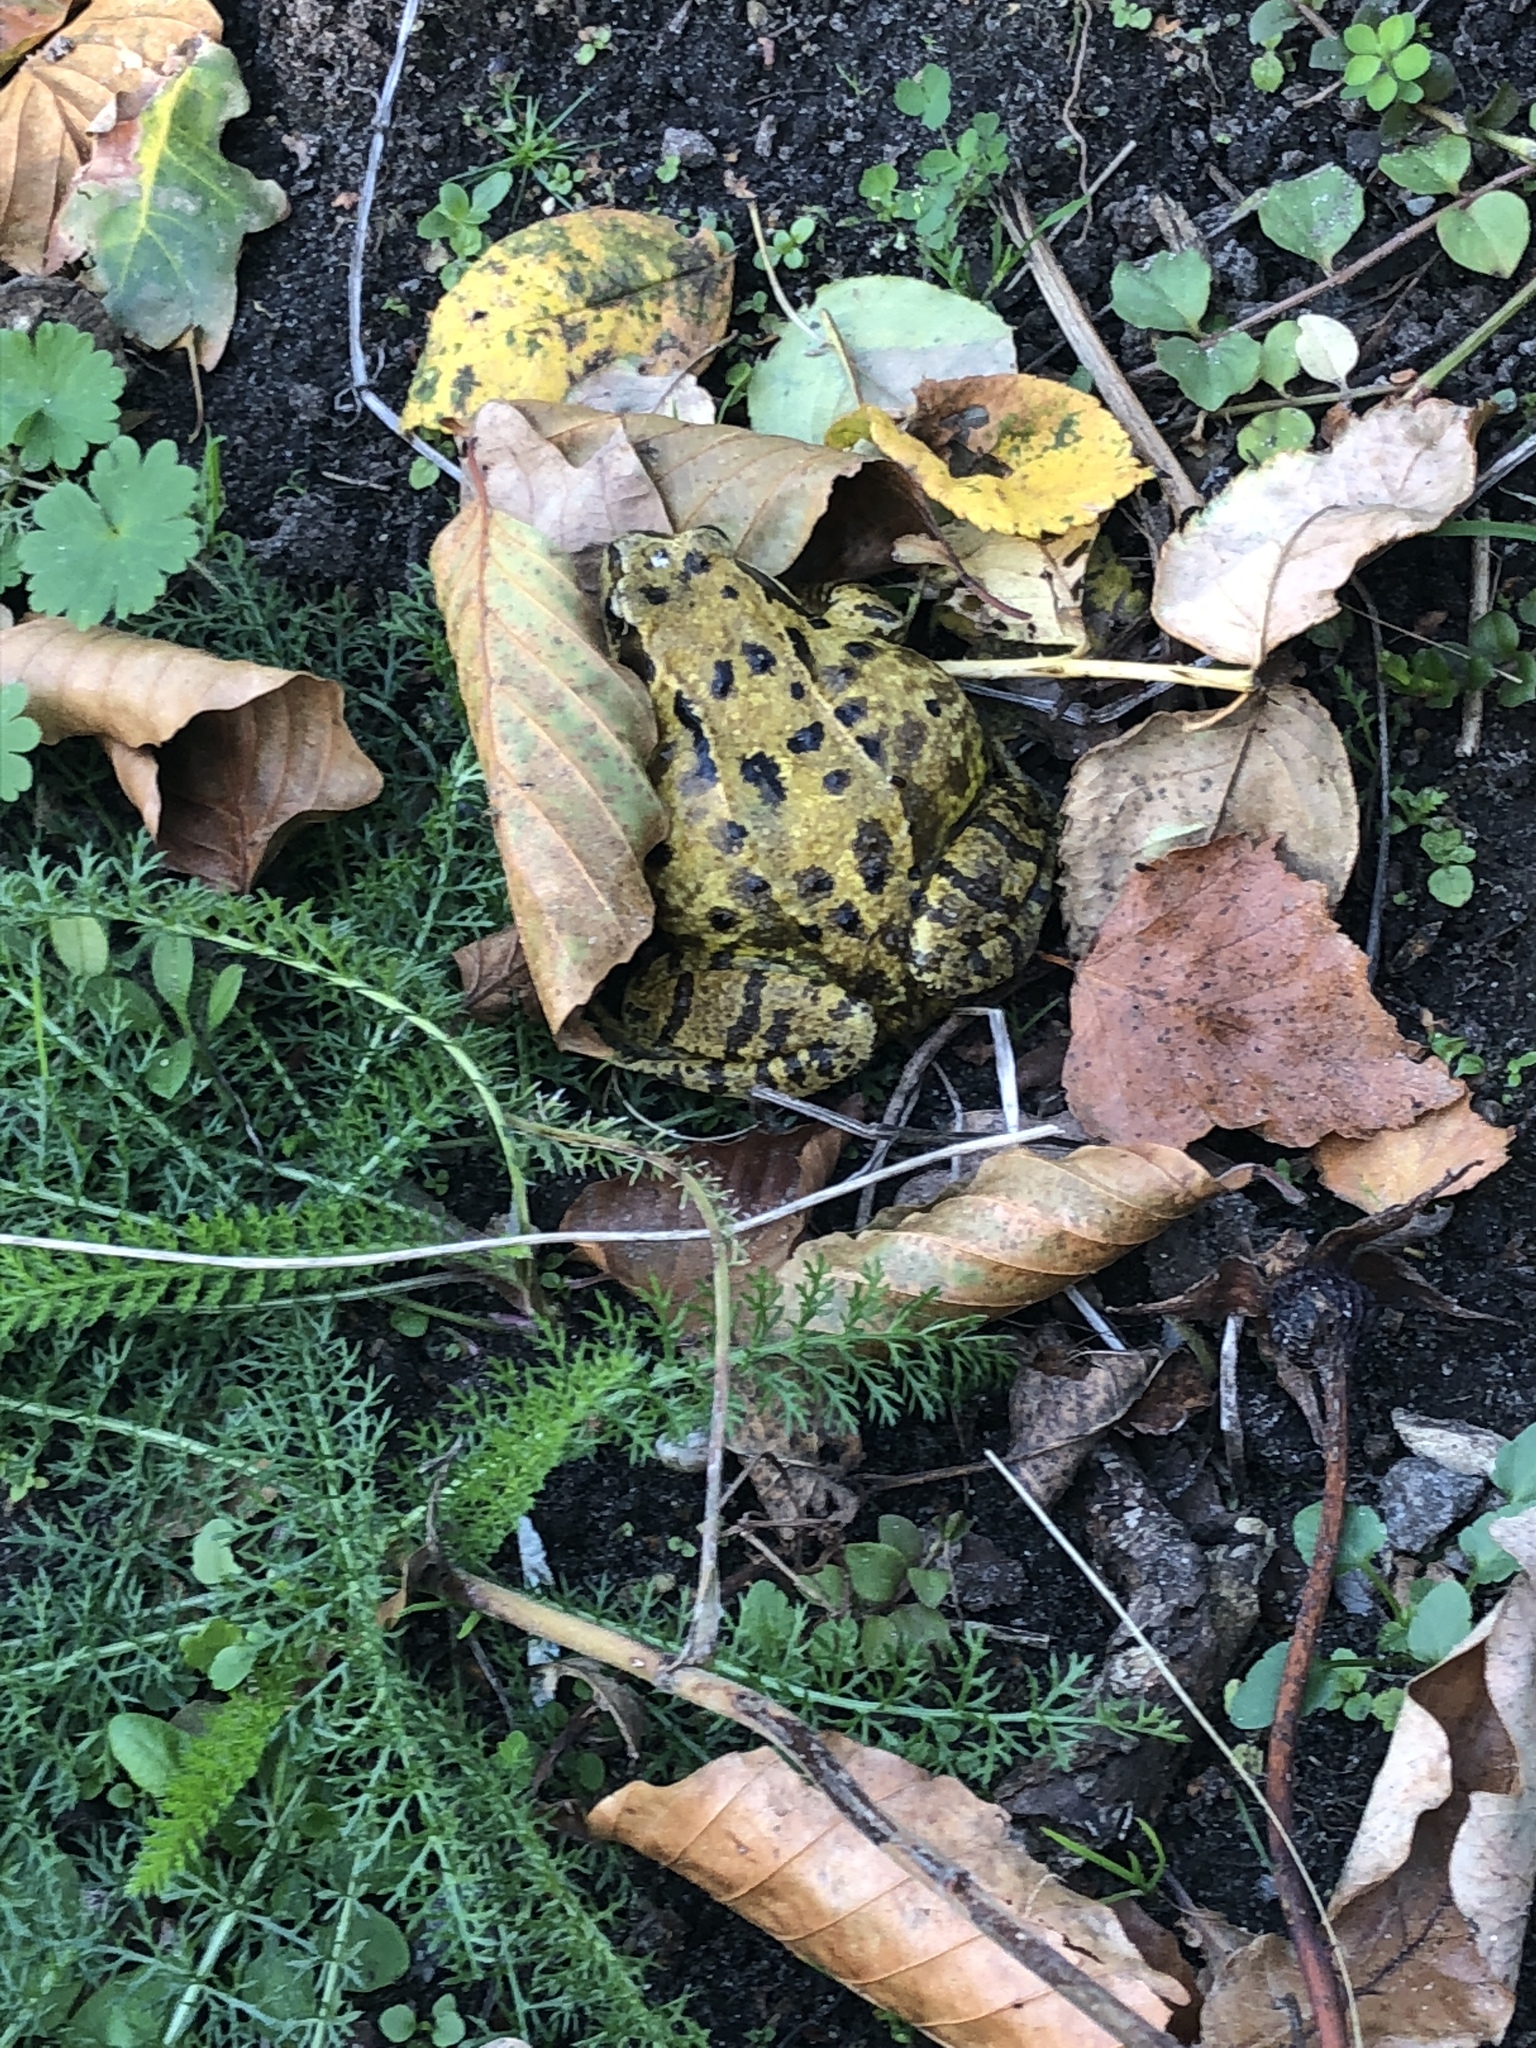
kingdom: Animalia
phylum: Chordata
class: Amphibia
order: Anura
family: Ranidae
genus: Rana
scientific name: Rana temporaria
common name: Common frog
